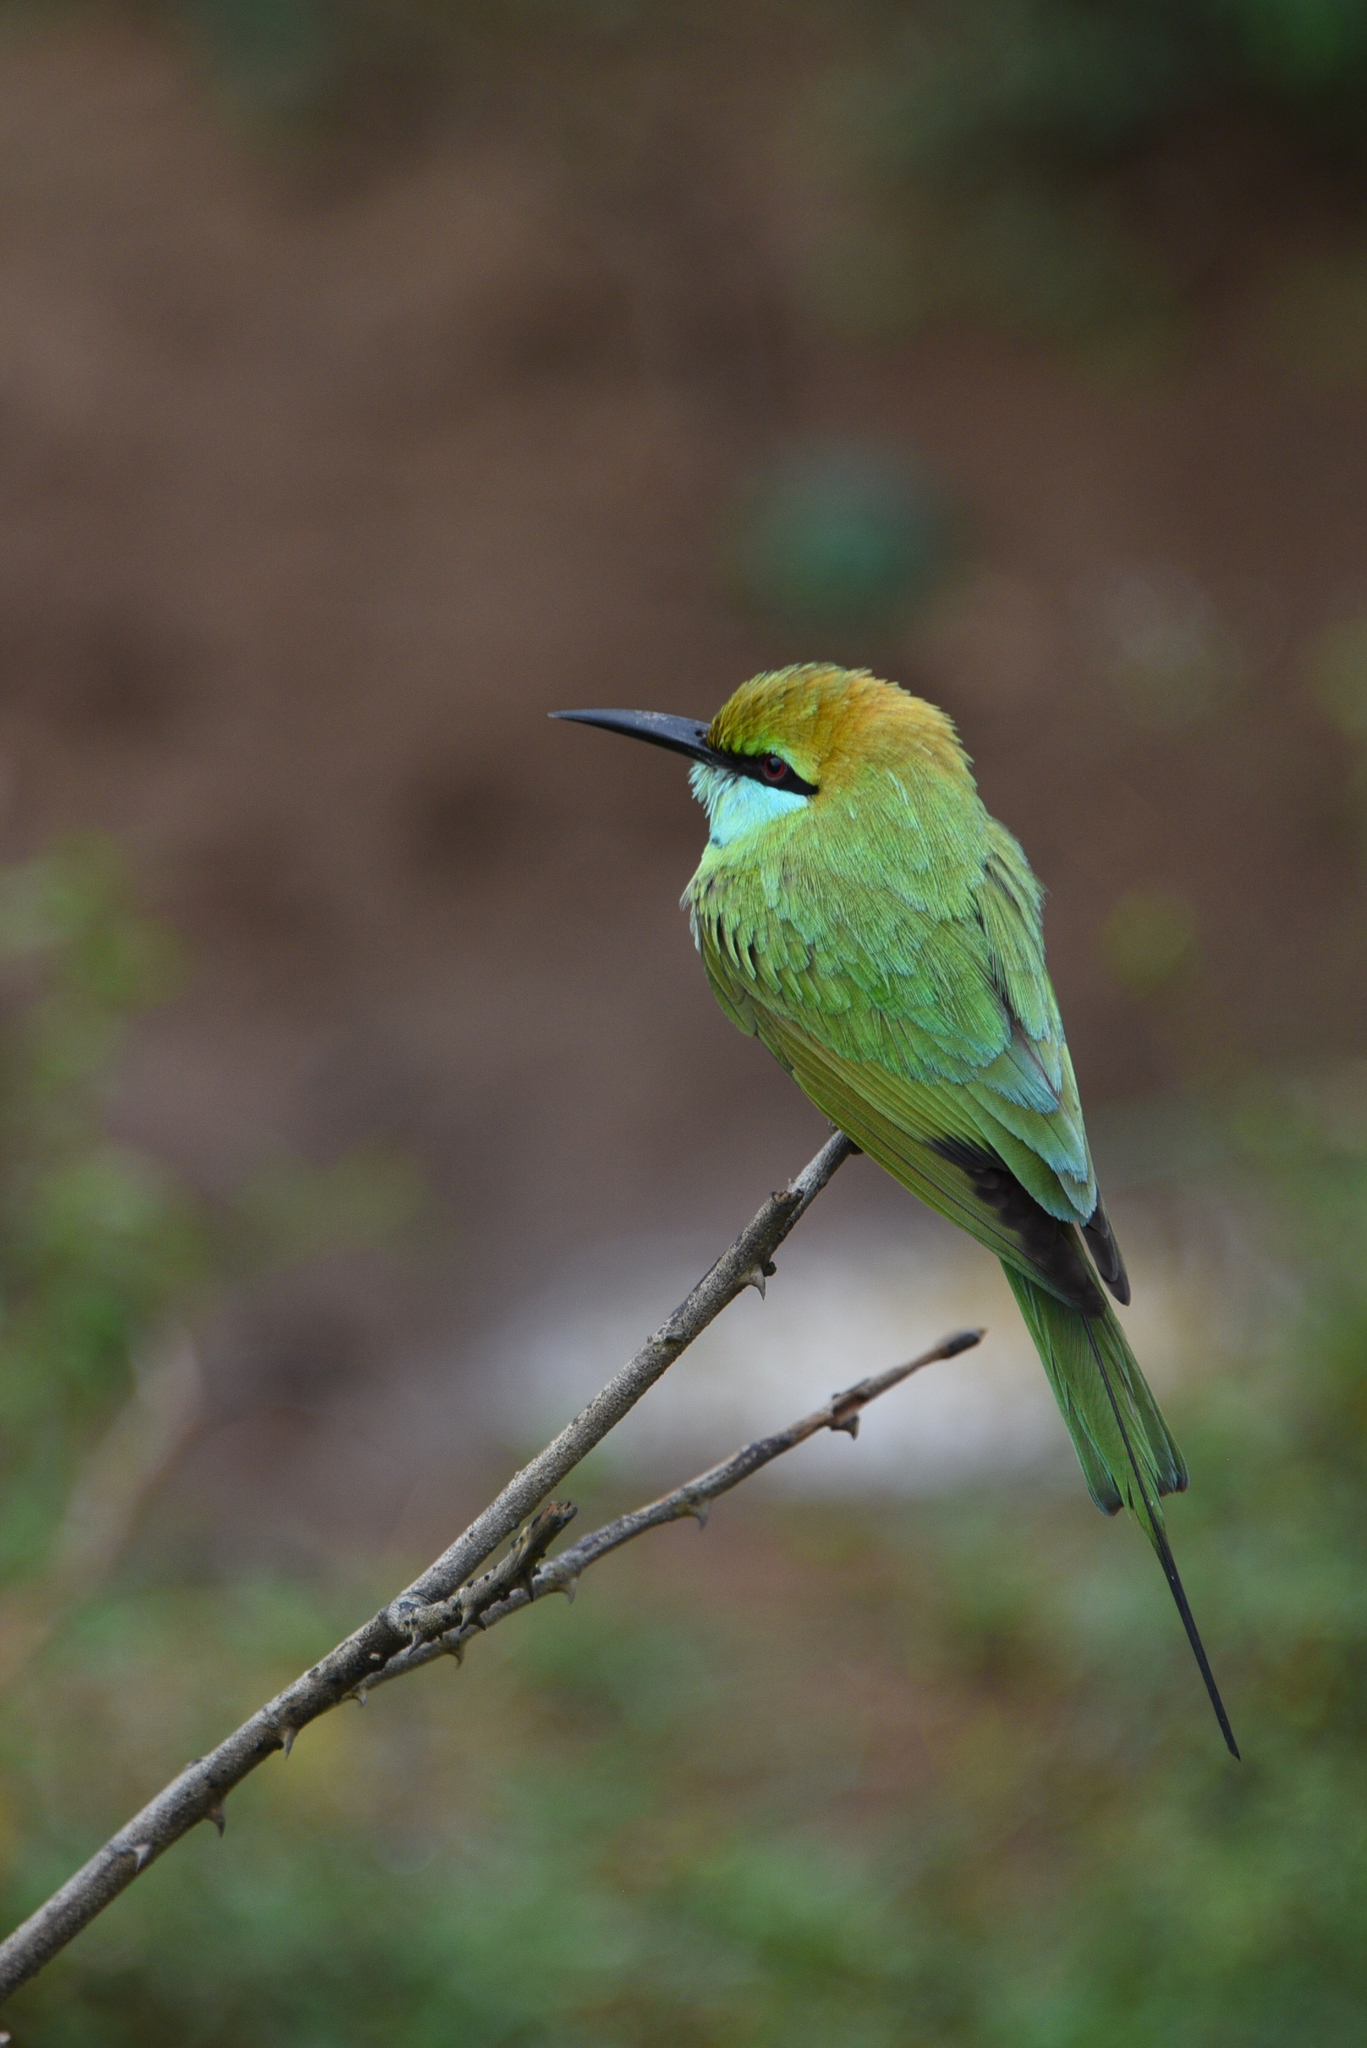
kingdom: Animalia
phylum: Chordata
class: Aves
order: Coraciiformes
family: Meropidae
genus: Merops
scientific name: Merops orientalis
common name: Green bee-eater
